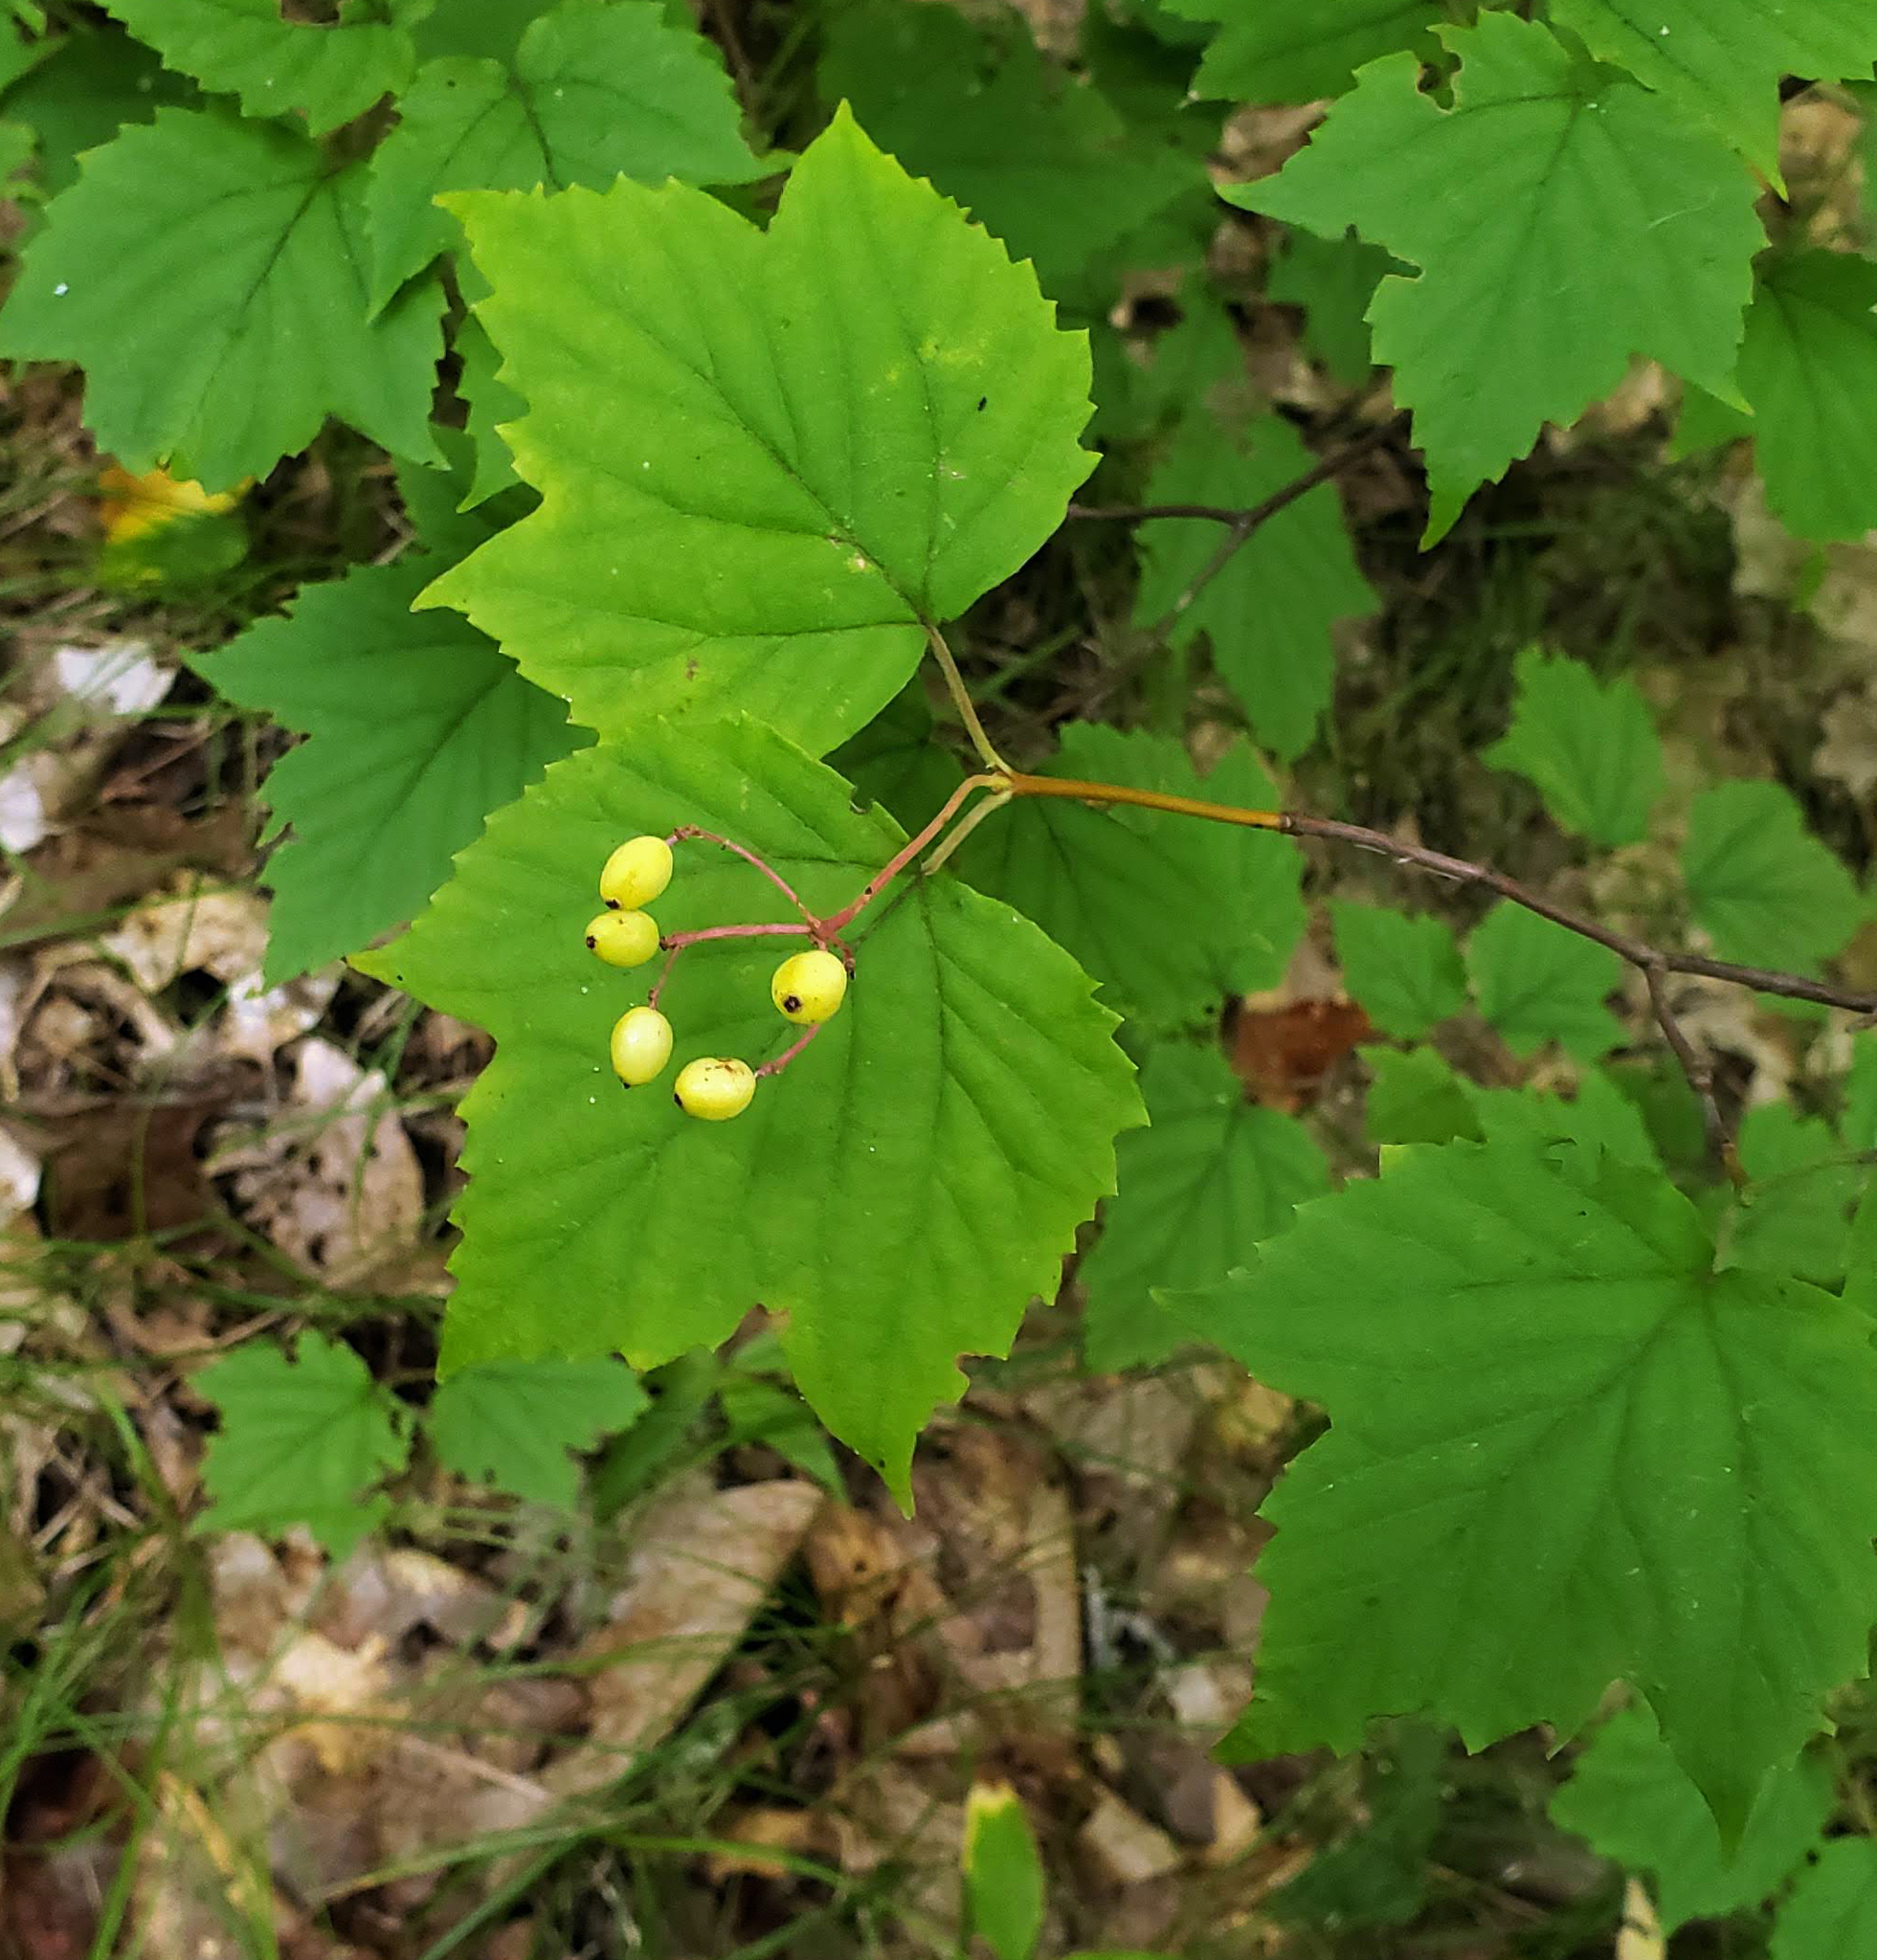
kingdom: Plantae
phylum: Tracheophyta
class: Magnoliopsida
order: Dipsacales
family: Viburnaceae
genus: Viburnum
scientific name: Viburnum acerifolium
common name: Dockmackie
